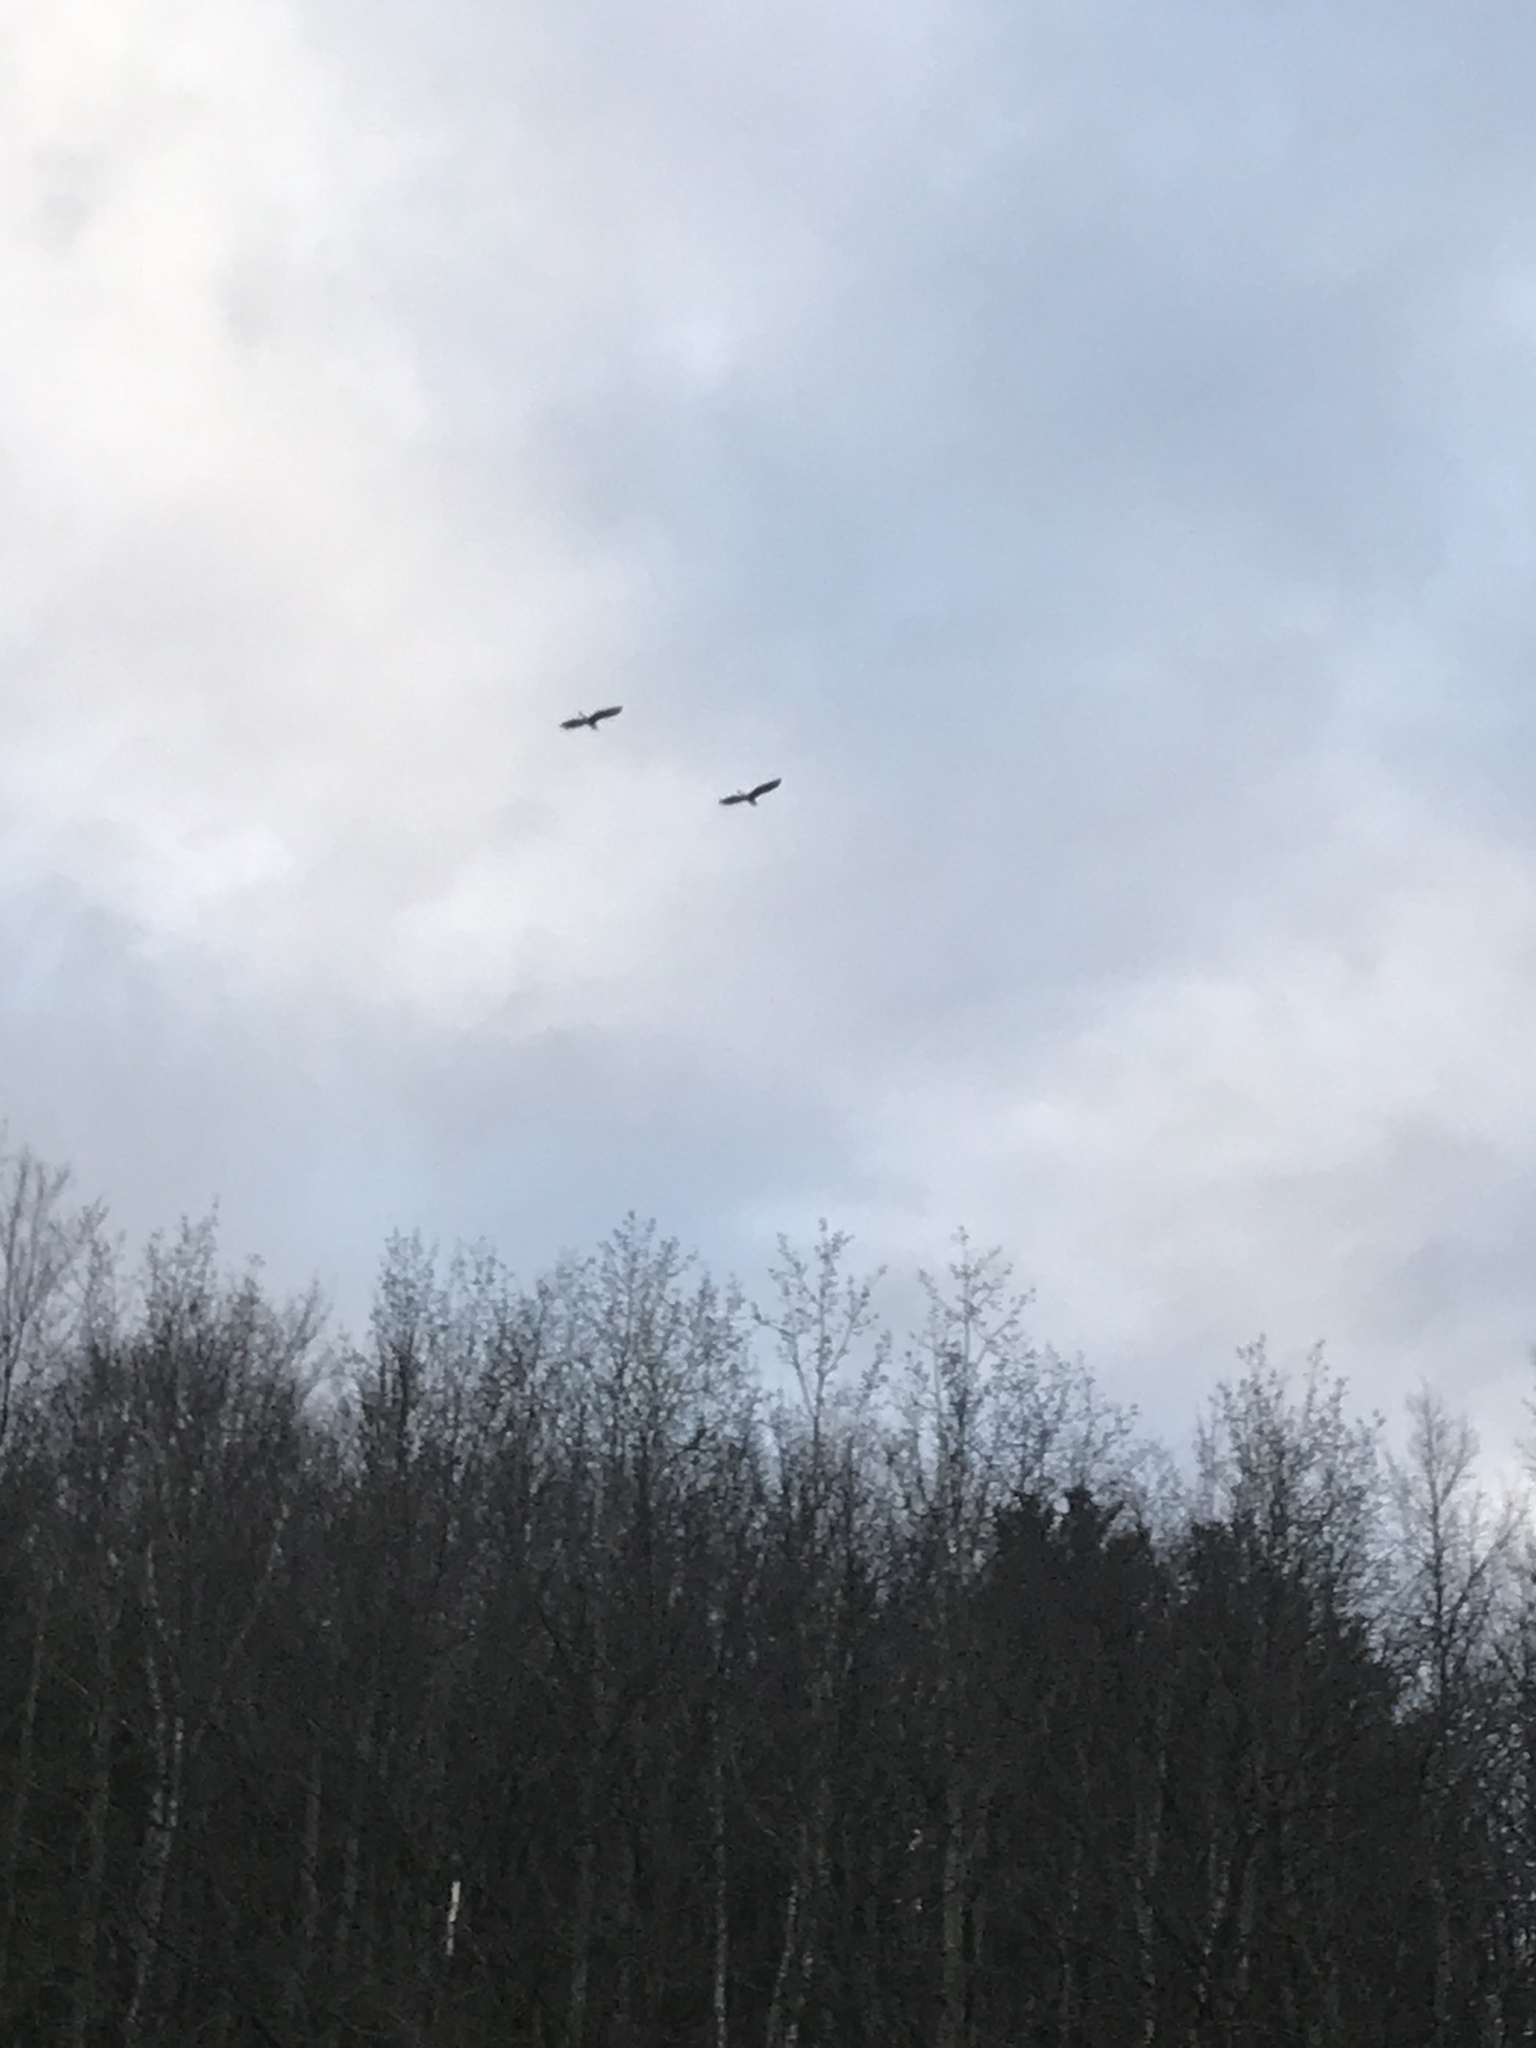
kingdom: Animalia
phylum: Chordata
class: Aves
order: Pelecaniformes
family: Ardeidae
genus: Ardea
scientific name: Ardea herodias
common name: Great blue heron
